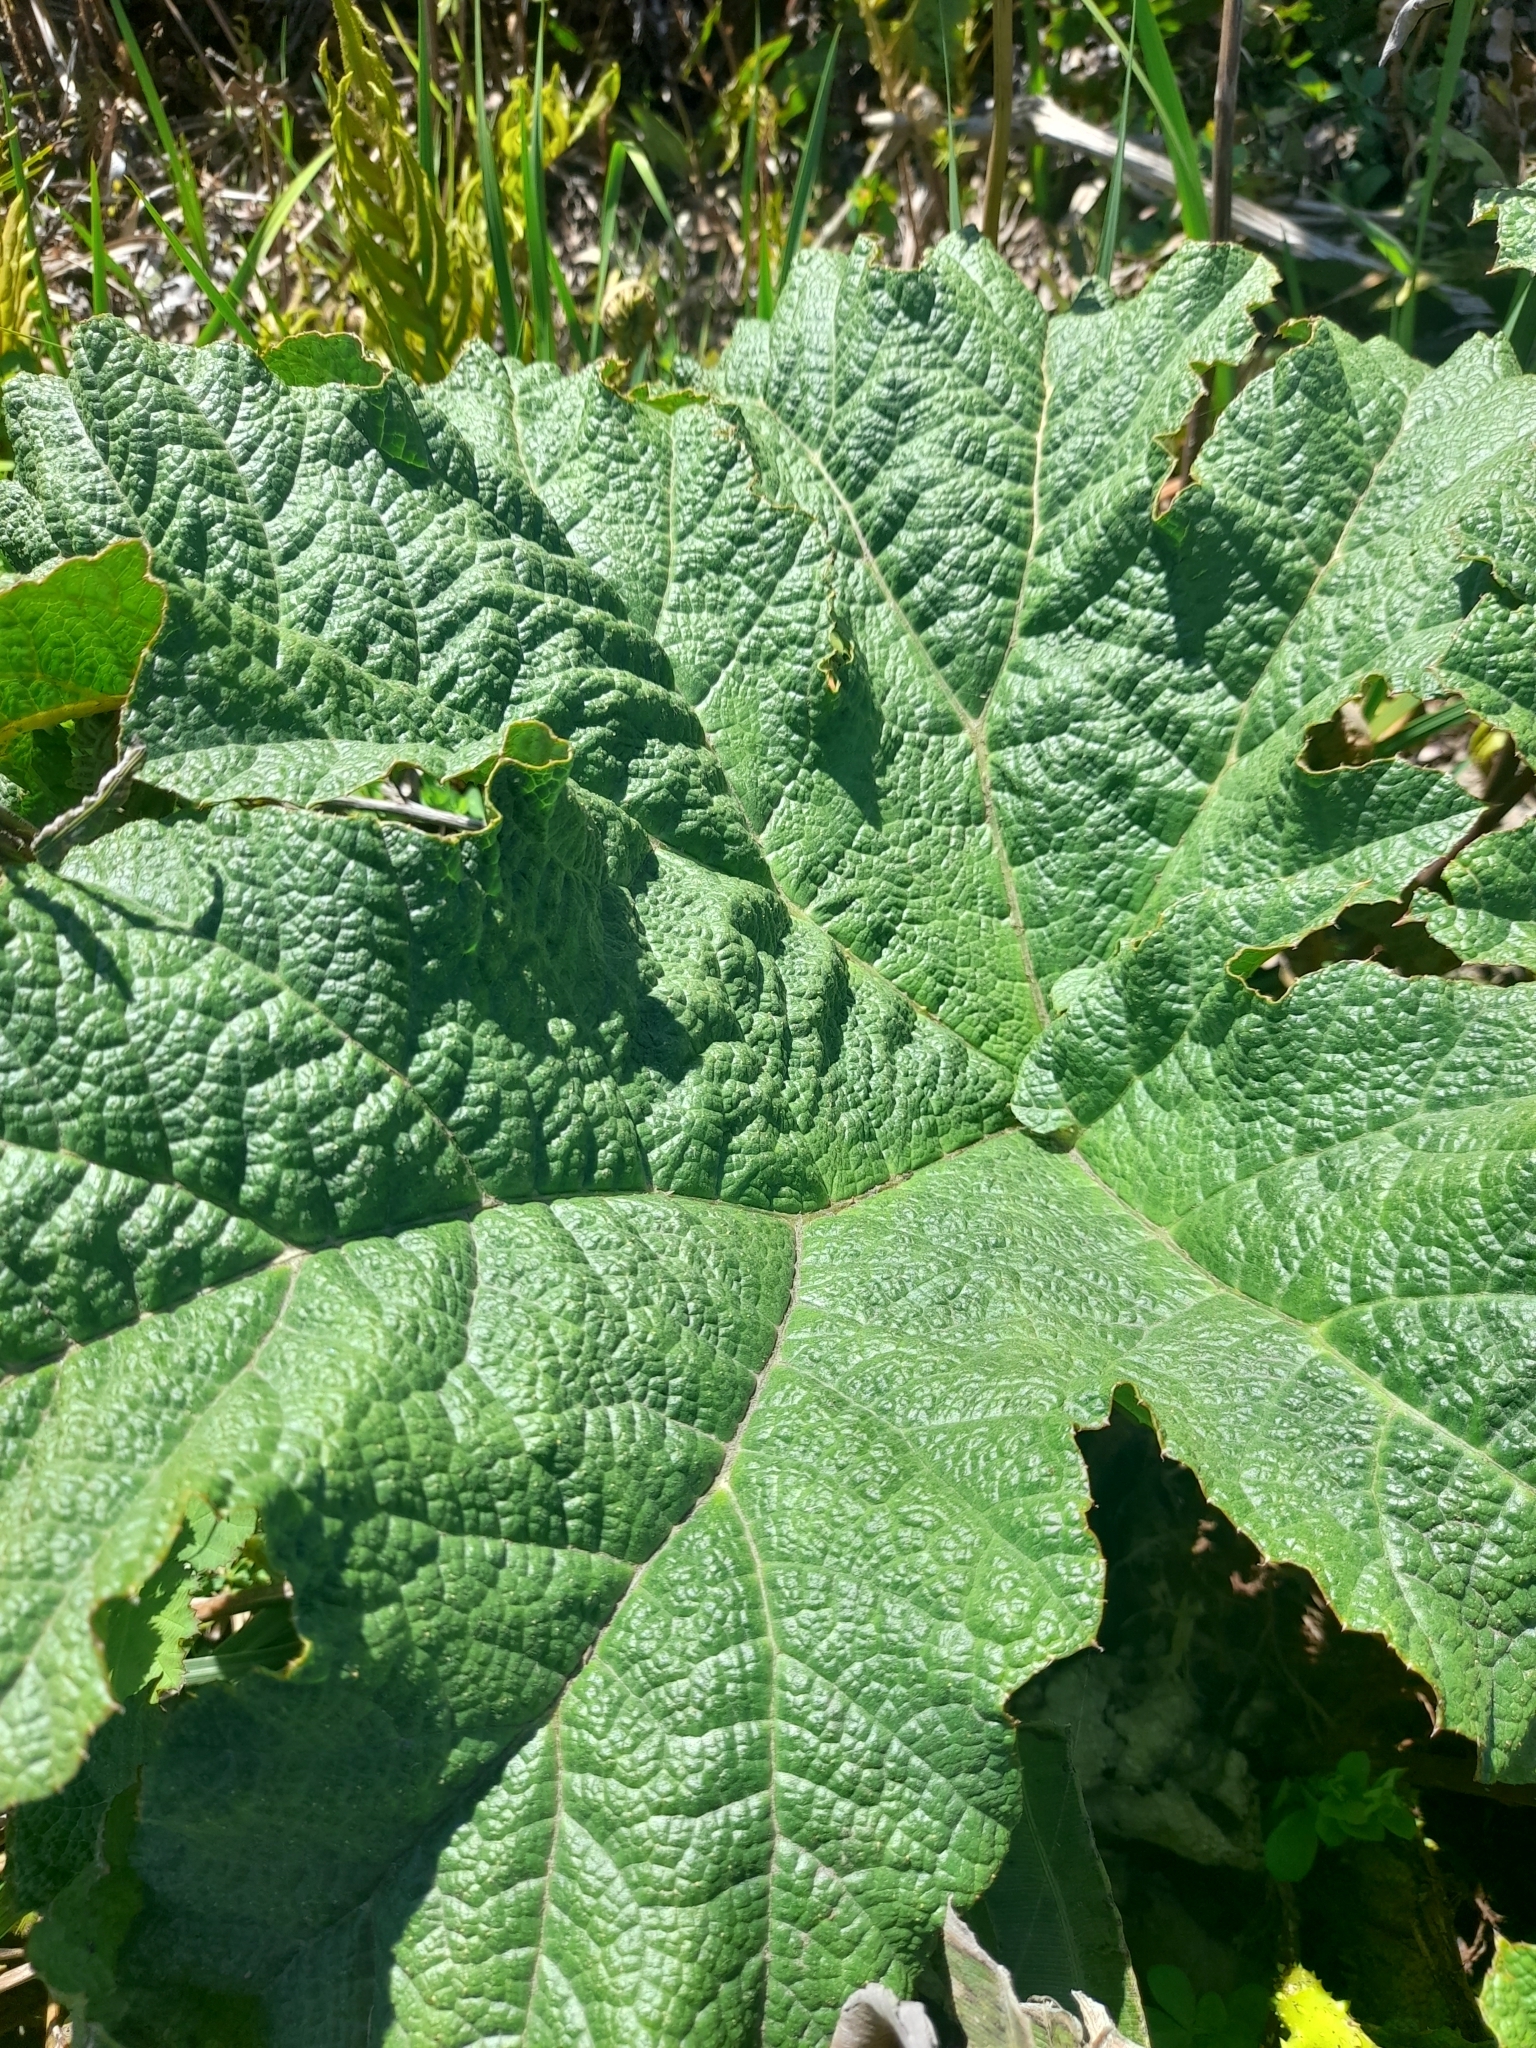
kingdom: Plantae
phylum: Tracheophyta
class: Magnoliopsida
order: Gunnerales
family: Gunneraceae
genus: Gunnera
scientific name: Gunnera tinctoria
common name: Giant-rhubarb
